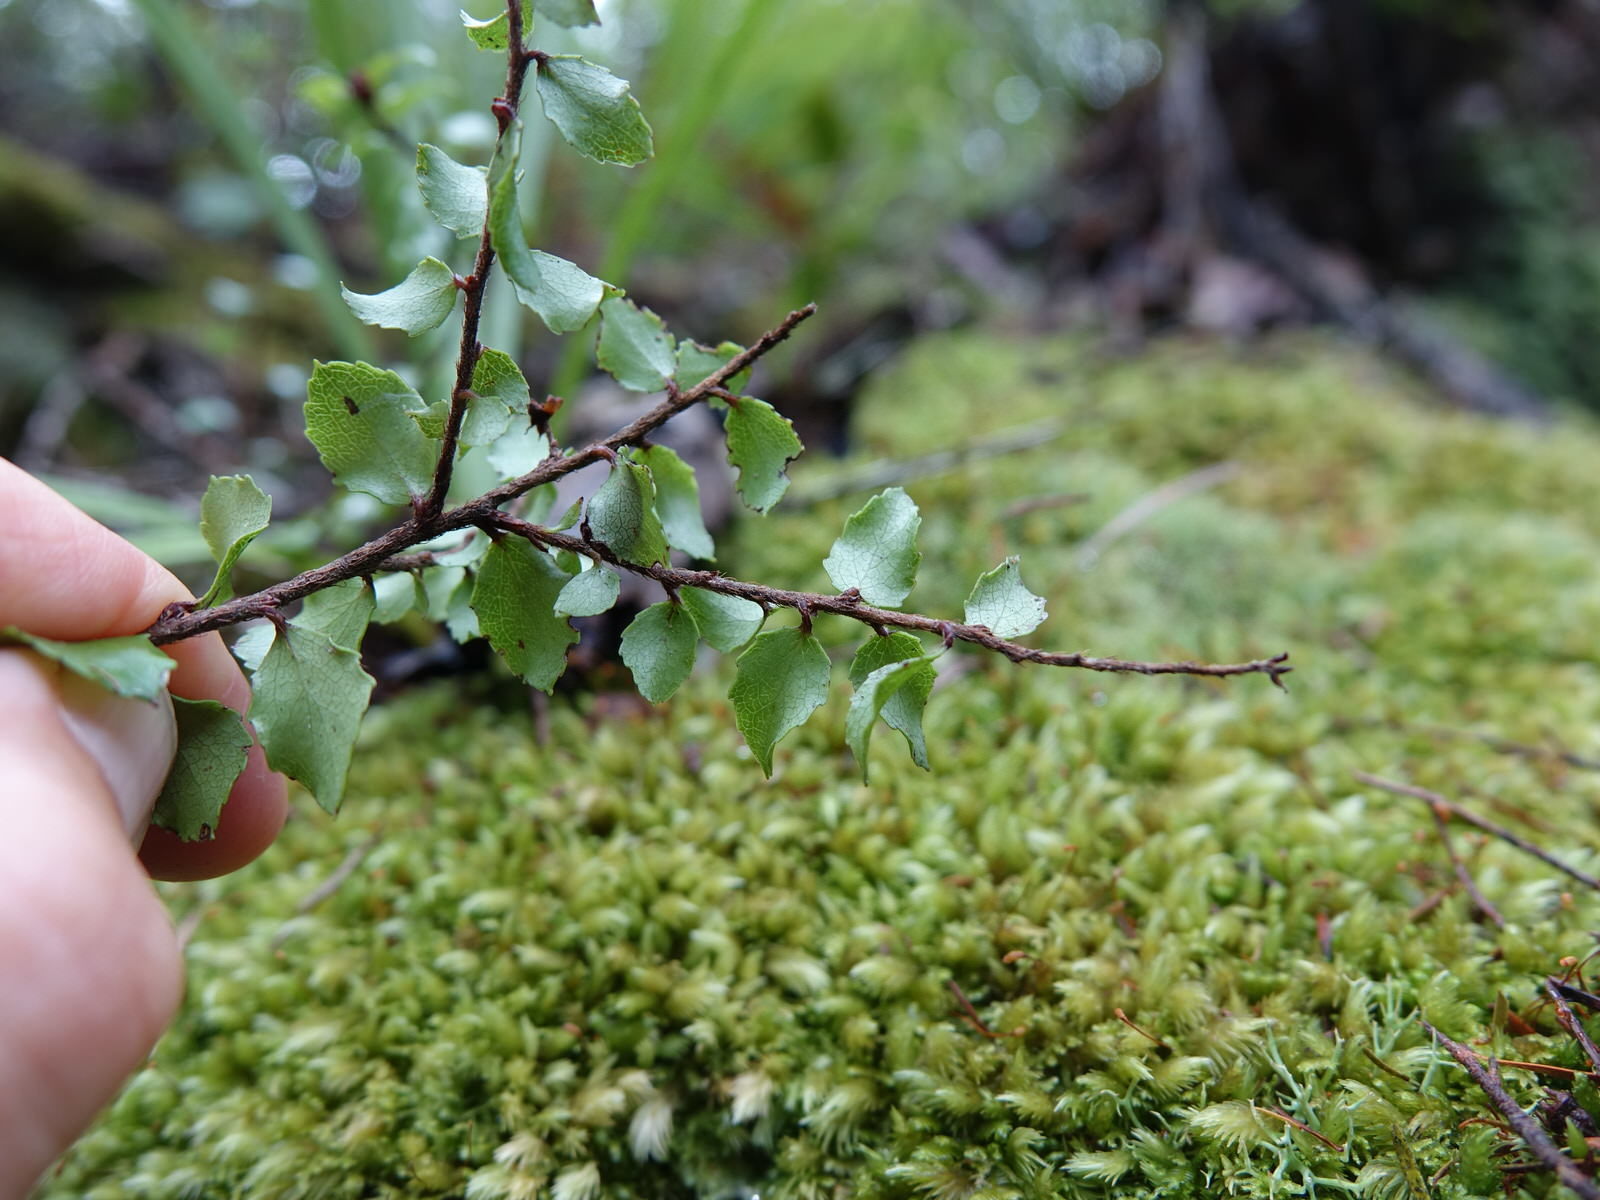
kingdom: Plantae
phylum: Tracheophyta
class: Magnoliopsida
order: Ericales
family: Ericaceae
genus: Gaultheria
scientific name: Gaultheria antipoda
